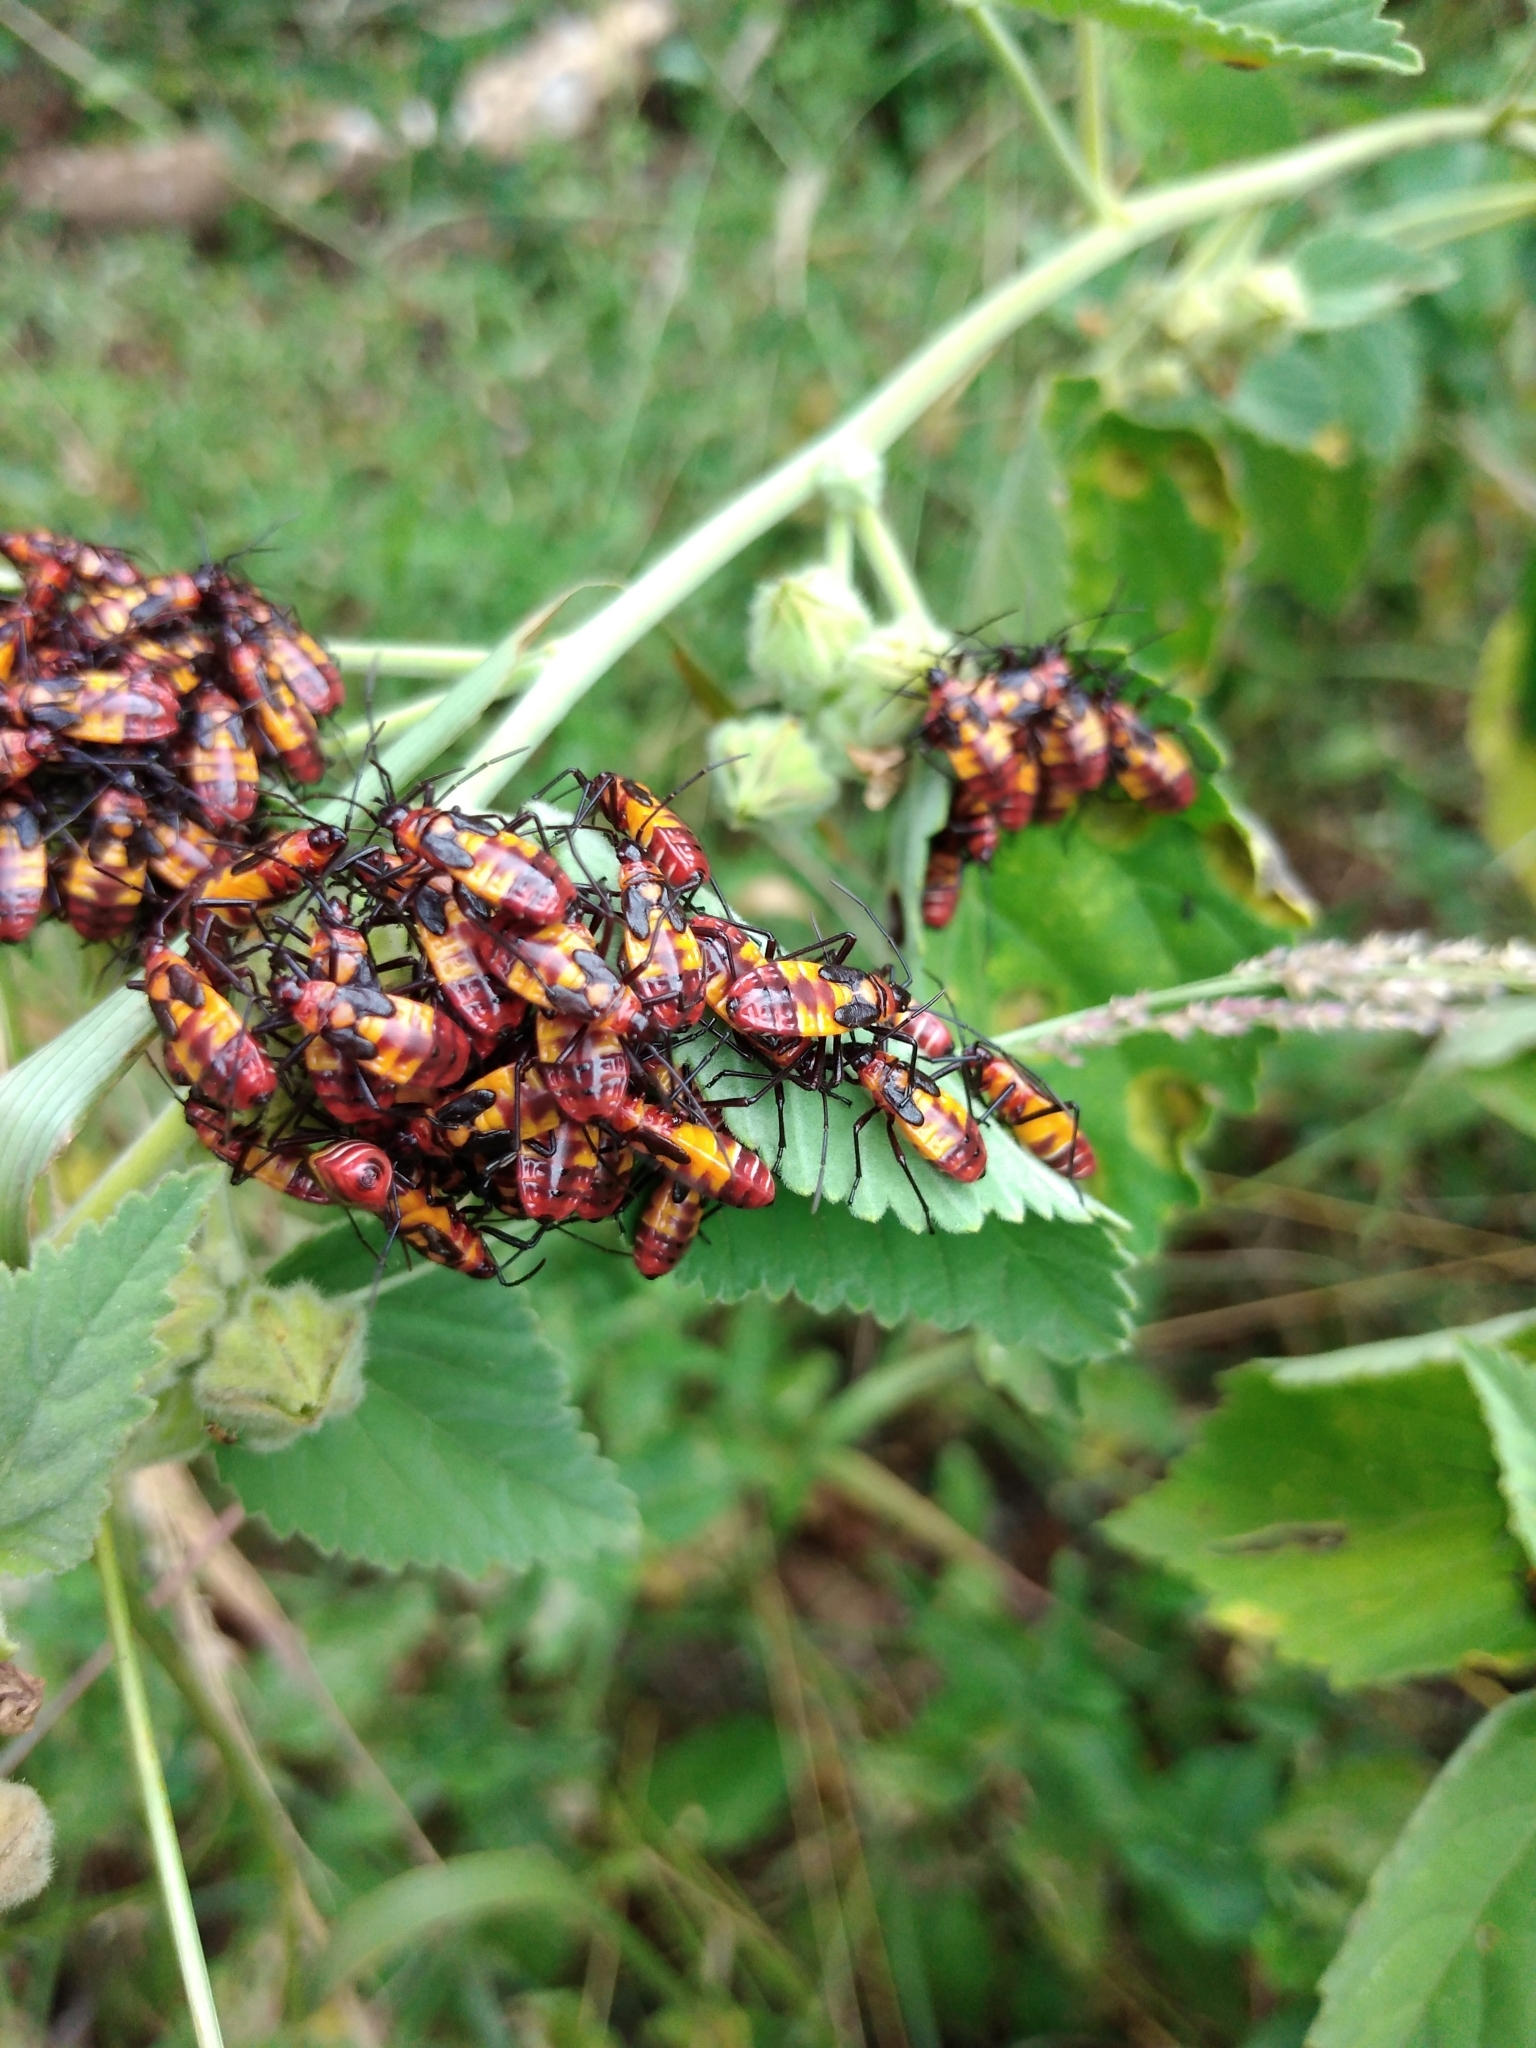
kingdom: Animalia
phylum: Arthropoda
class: Insecta
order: Hemiptera
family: Lygaeidae
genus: Oncopeltus
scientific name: Oncopeltus famelicus
